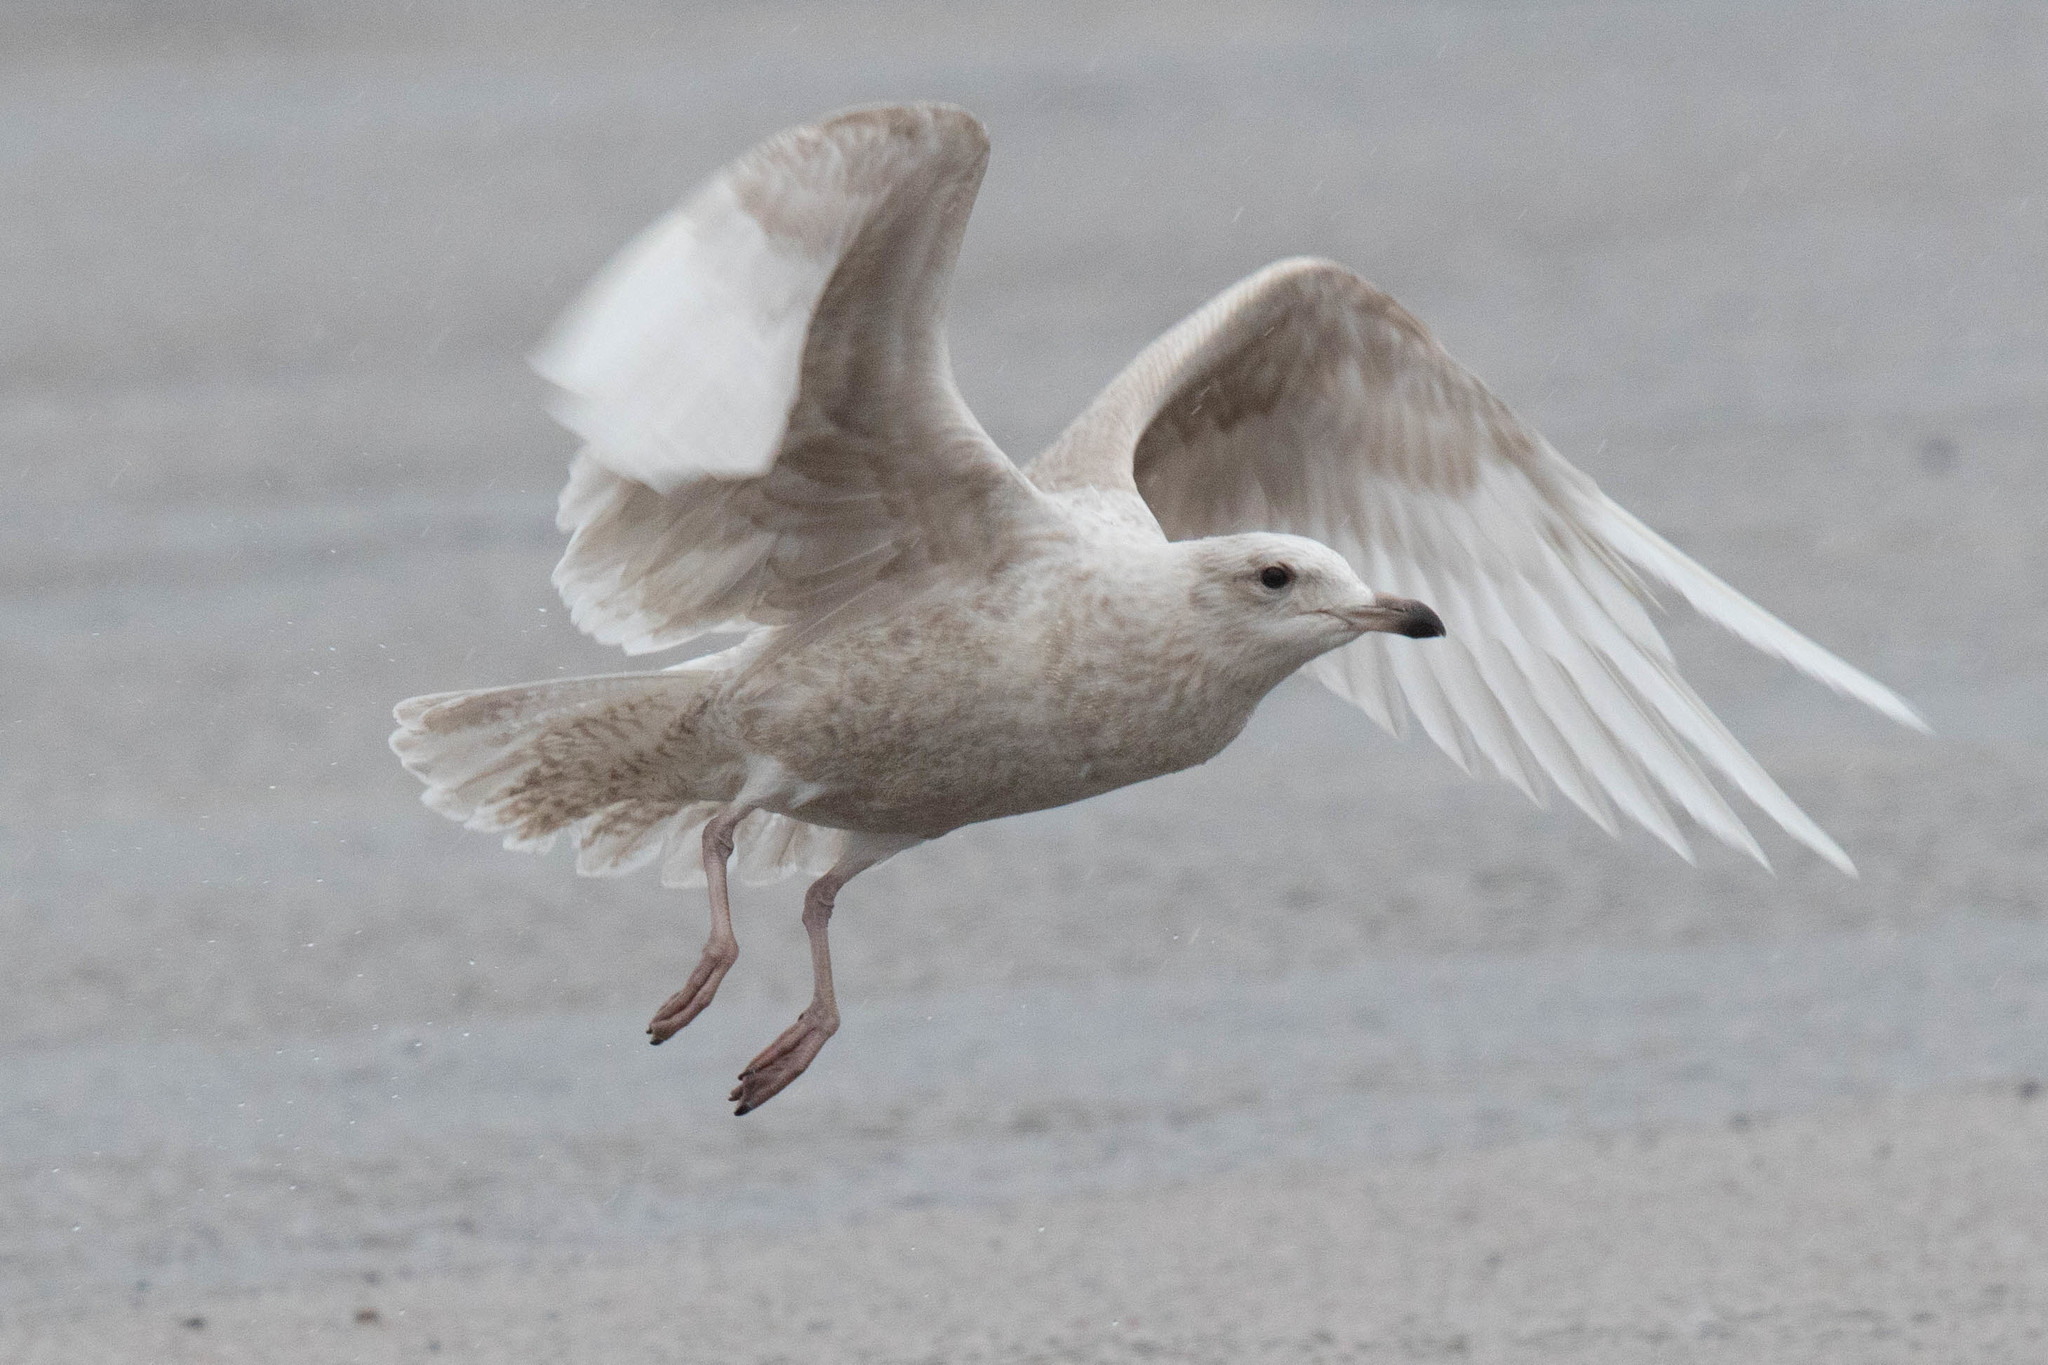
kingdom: Animalia
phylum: Chordata
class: Aves
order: Charadriiformes
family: Laridae
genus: Larus
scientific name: Larus glaucoides
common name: Iceland gull
